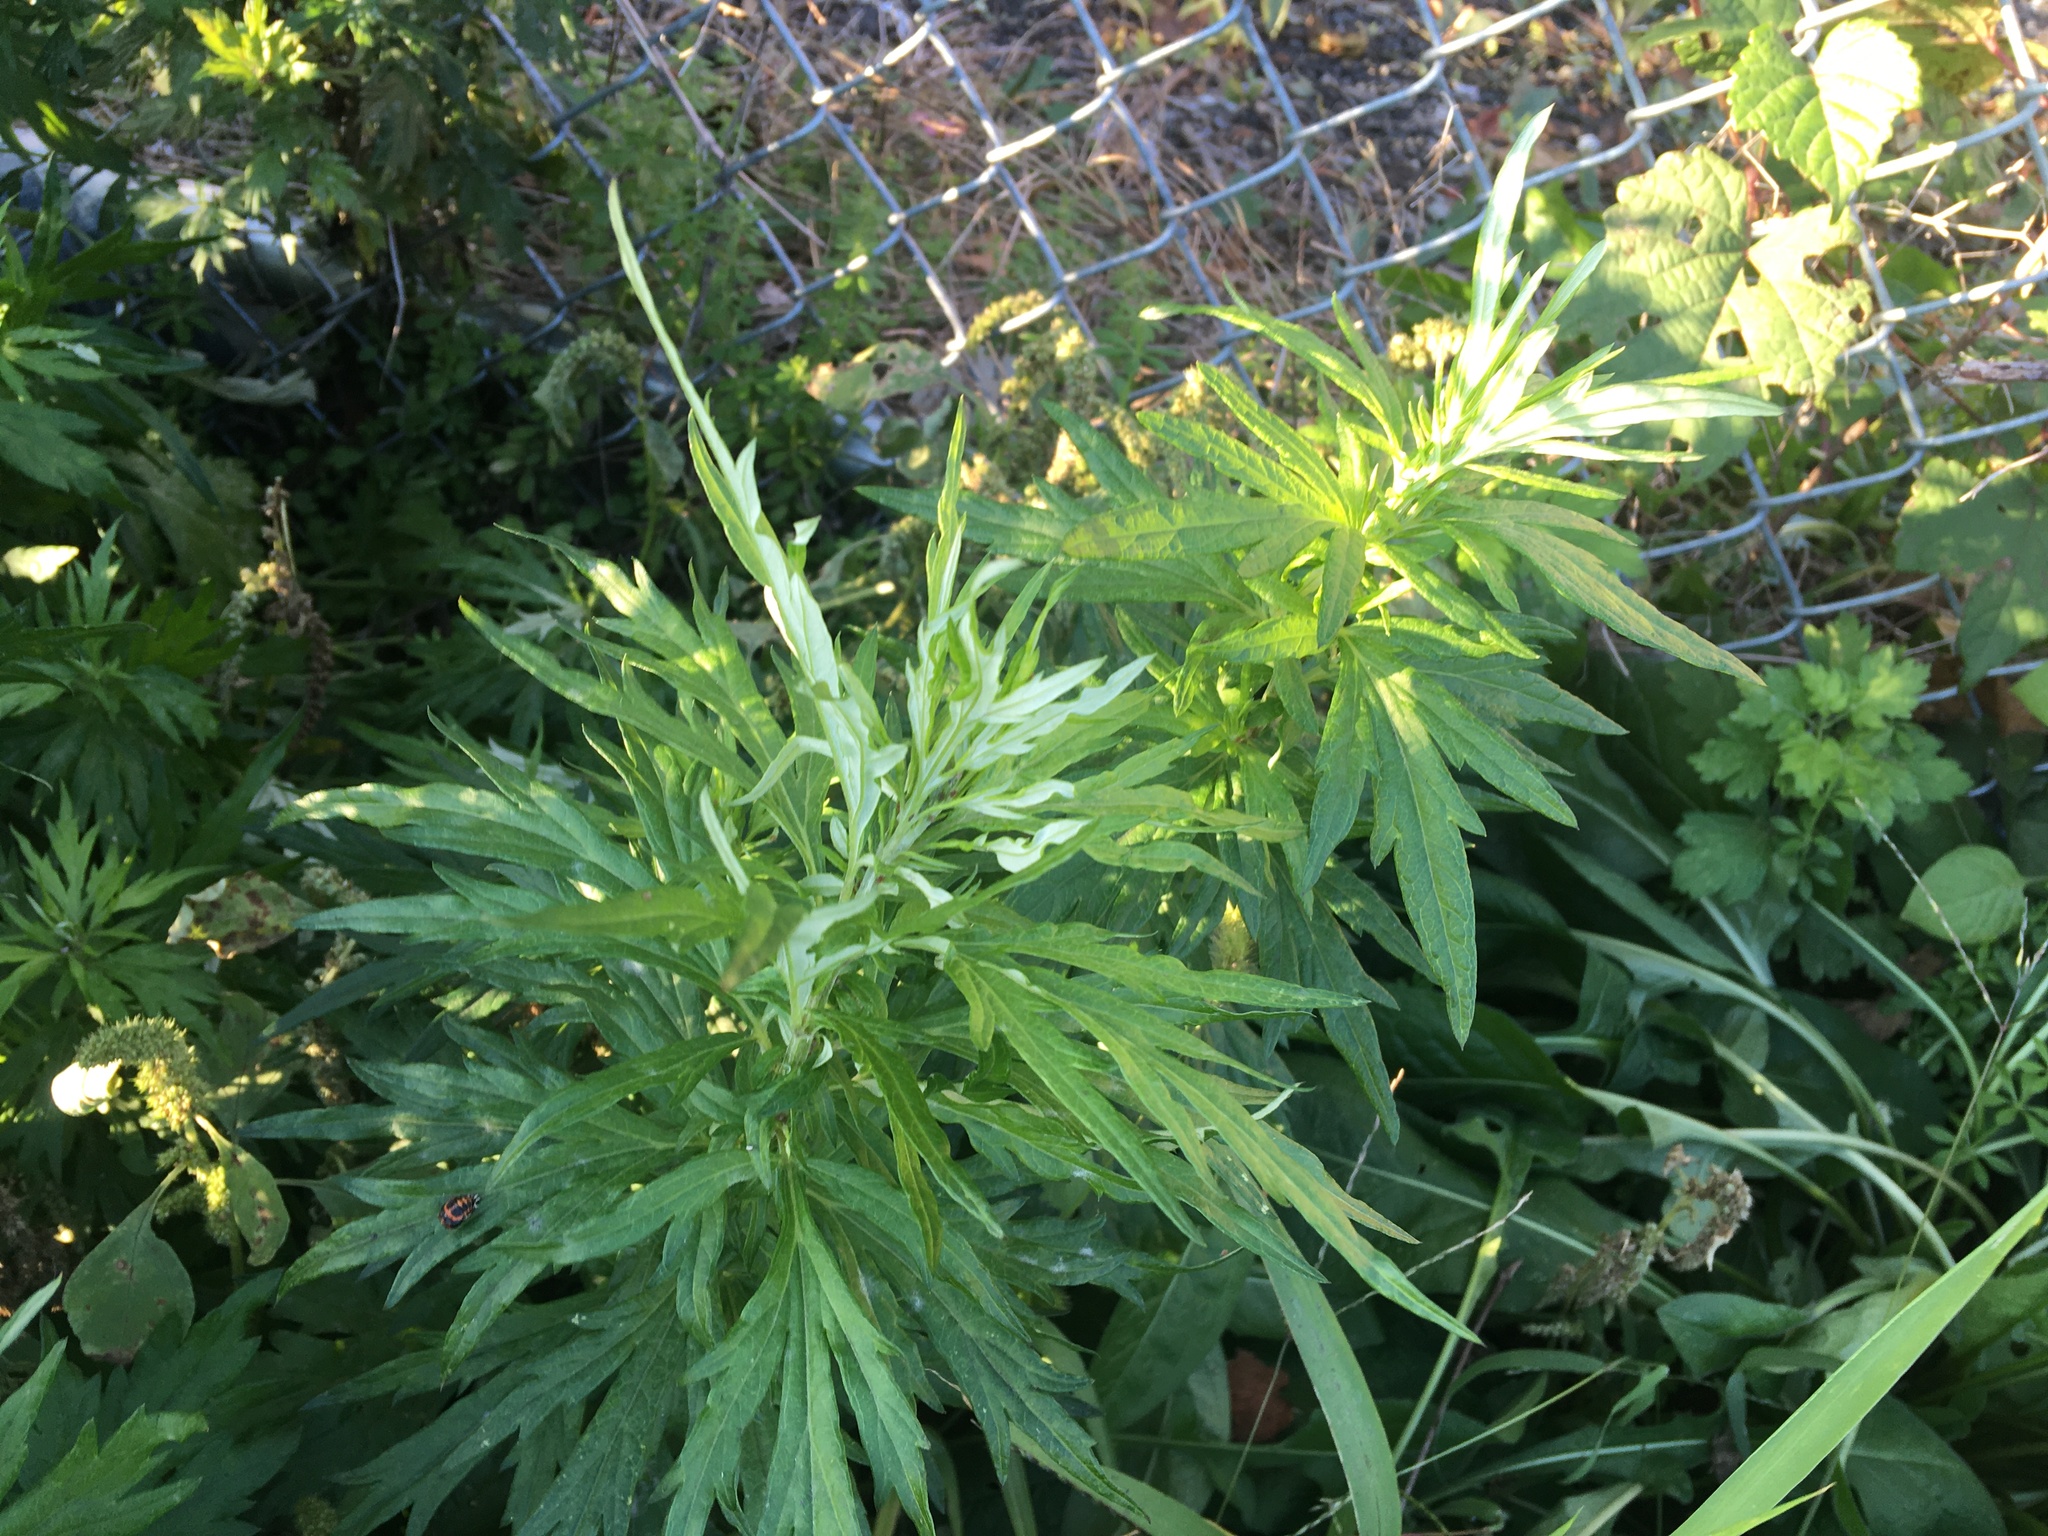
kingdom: Plantae
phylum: Tracheophyta
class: Magnoliopsida
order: Asterales
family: Asteraceae
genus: Artemisia
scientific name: Artemisia vulgaris
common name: Mugwort
